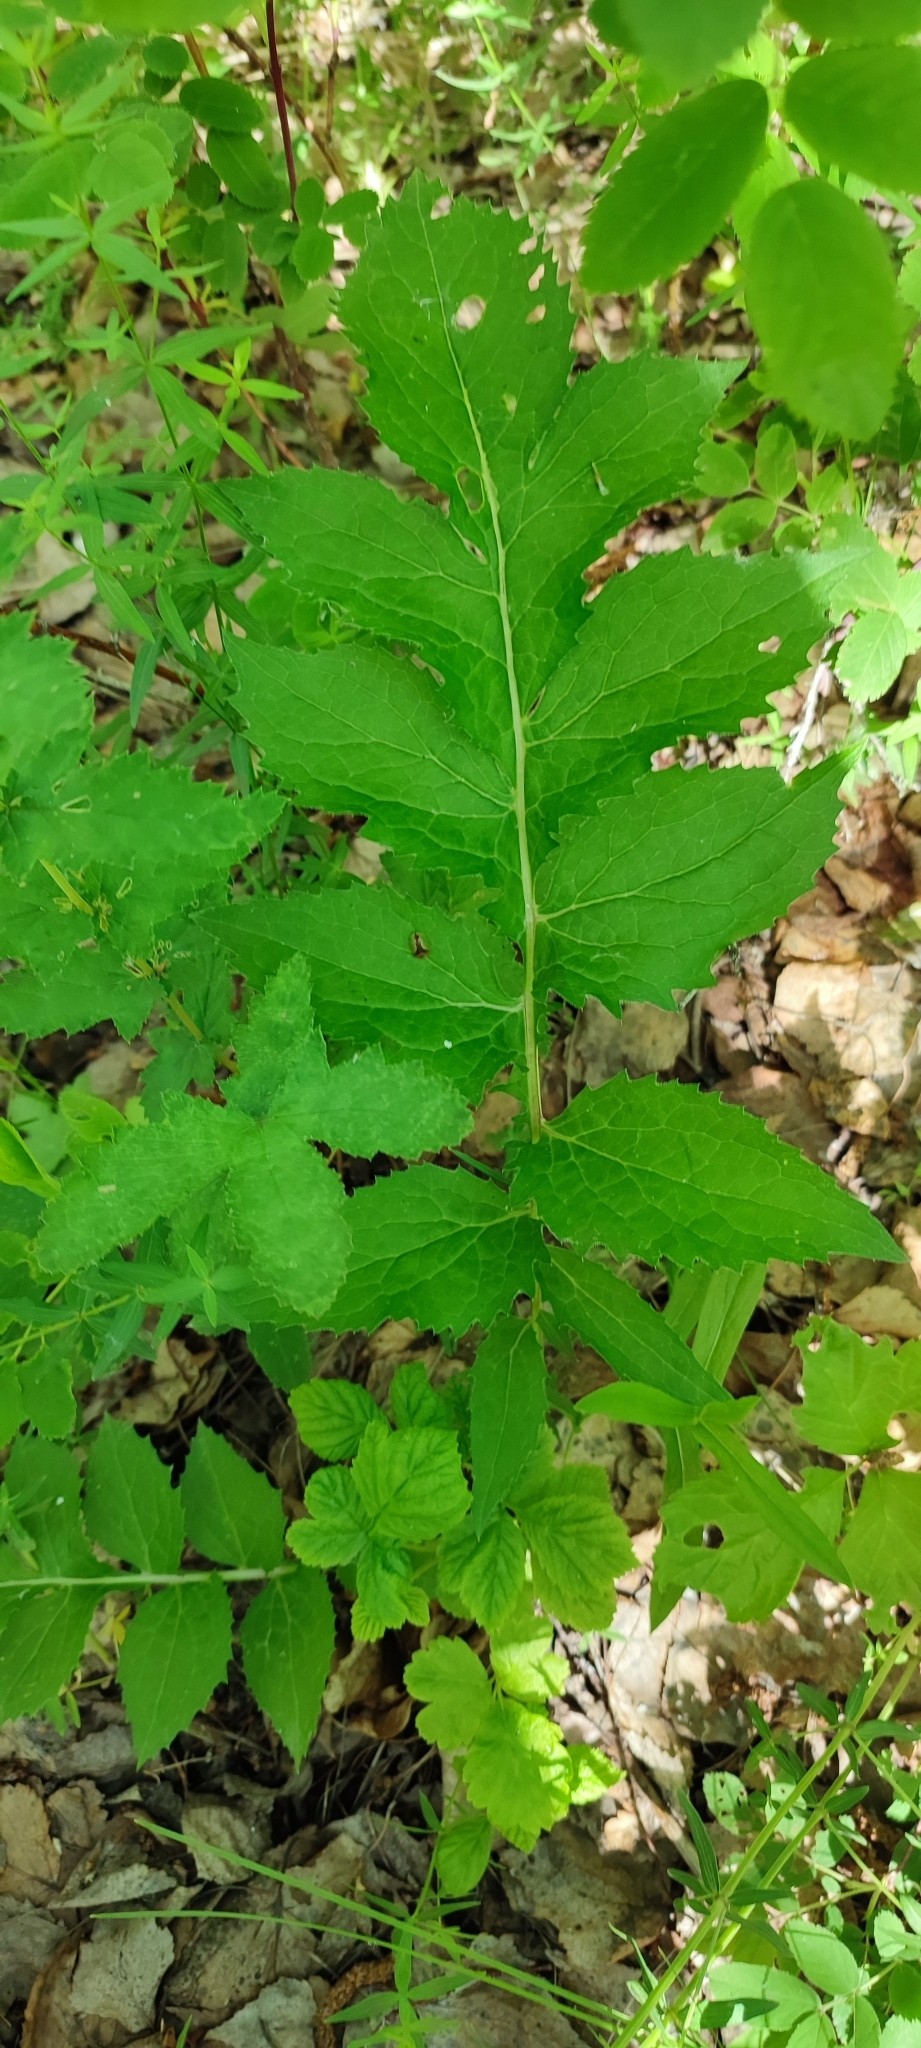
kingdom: Plantae
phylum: Tracheophyta
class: Magnoliopsida
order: Asterales
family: Asteraceae
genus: Serratula
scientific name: Serratula coronata
